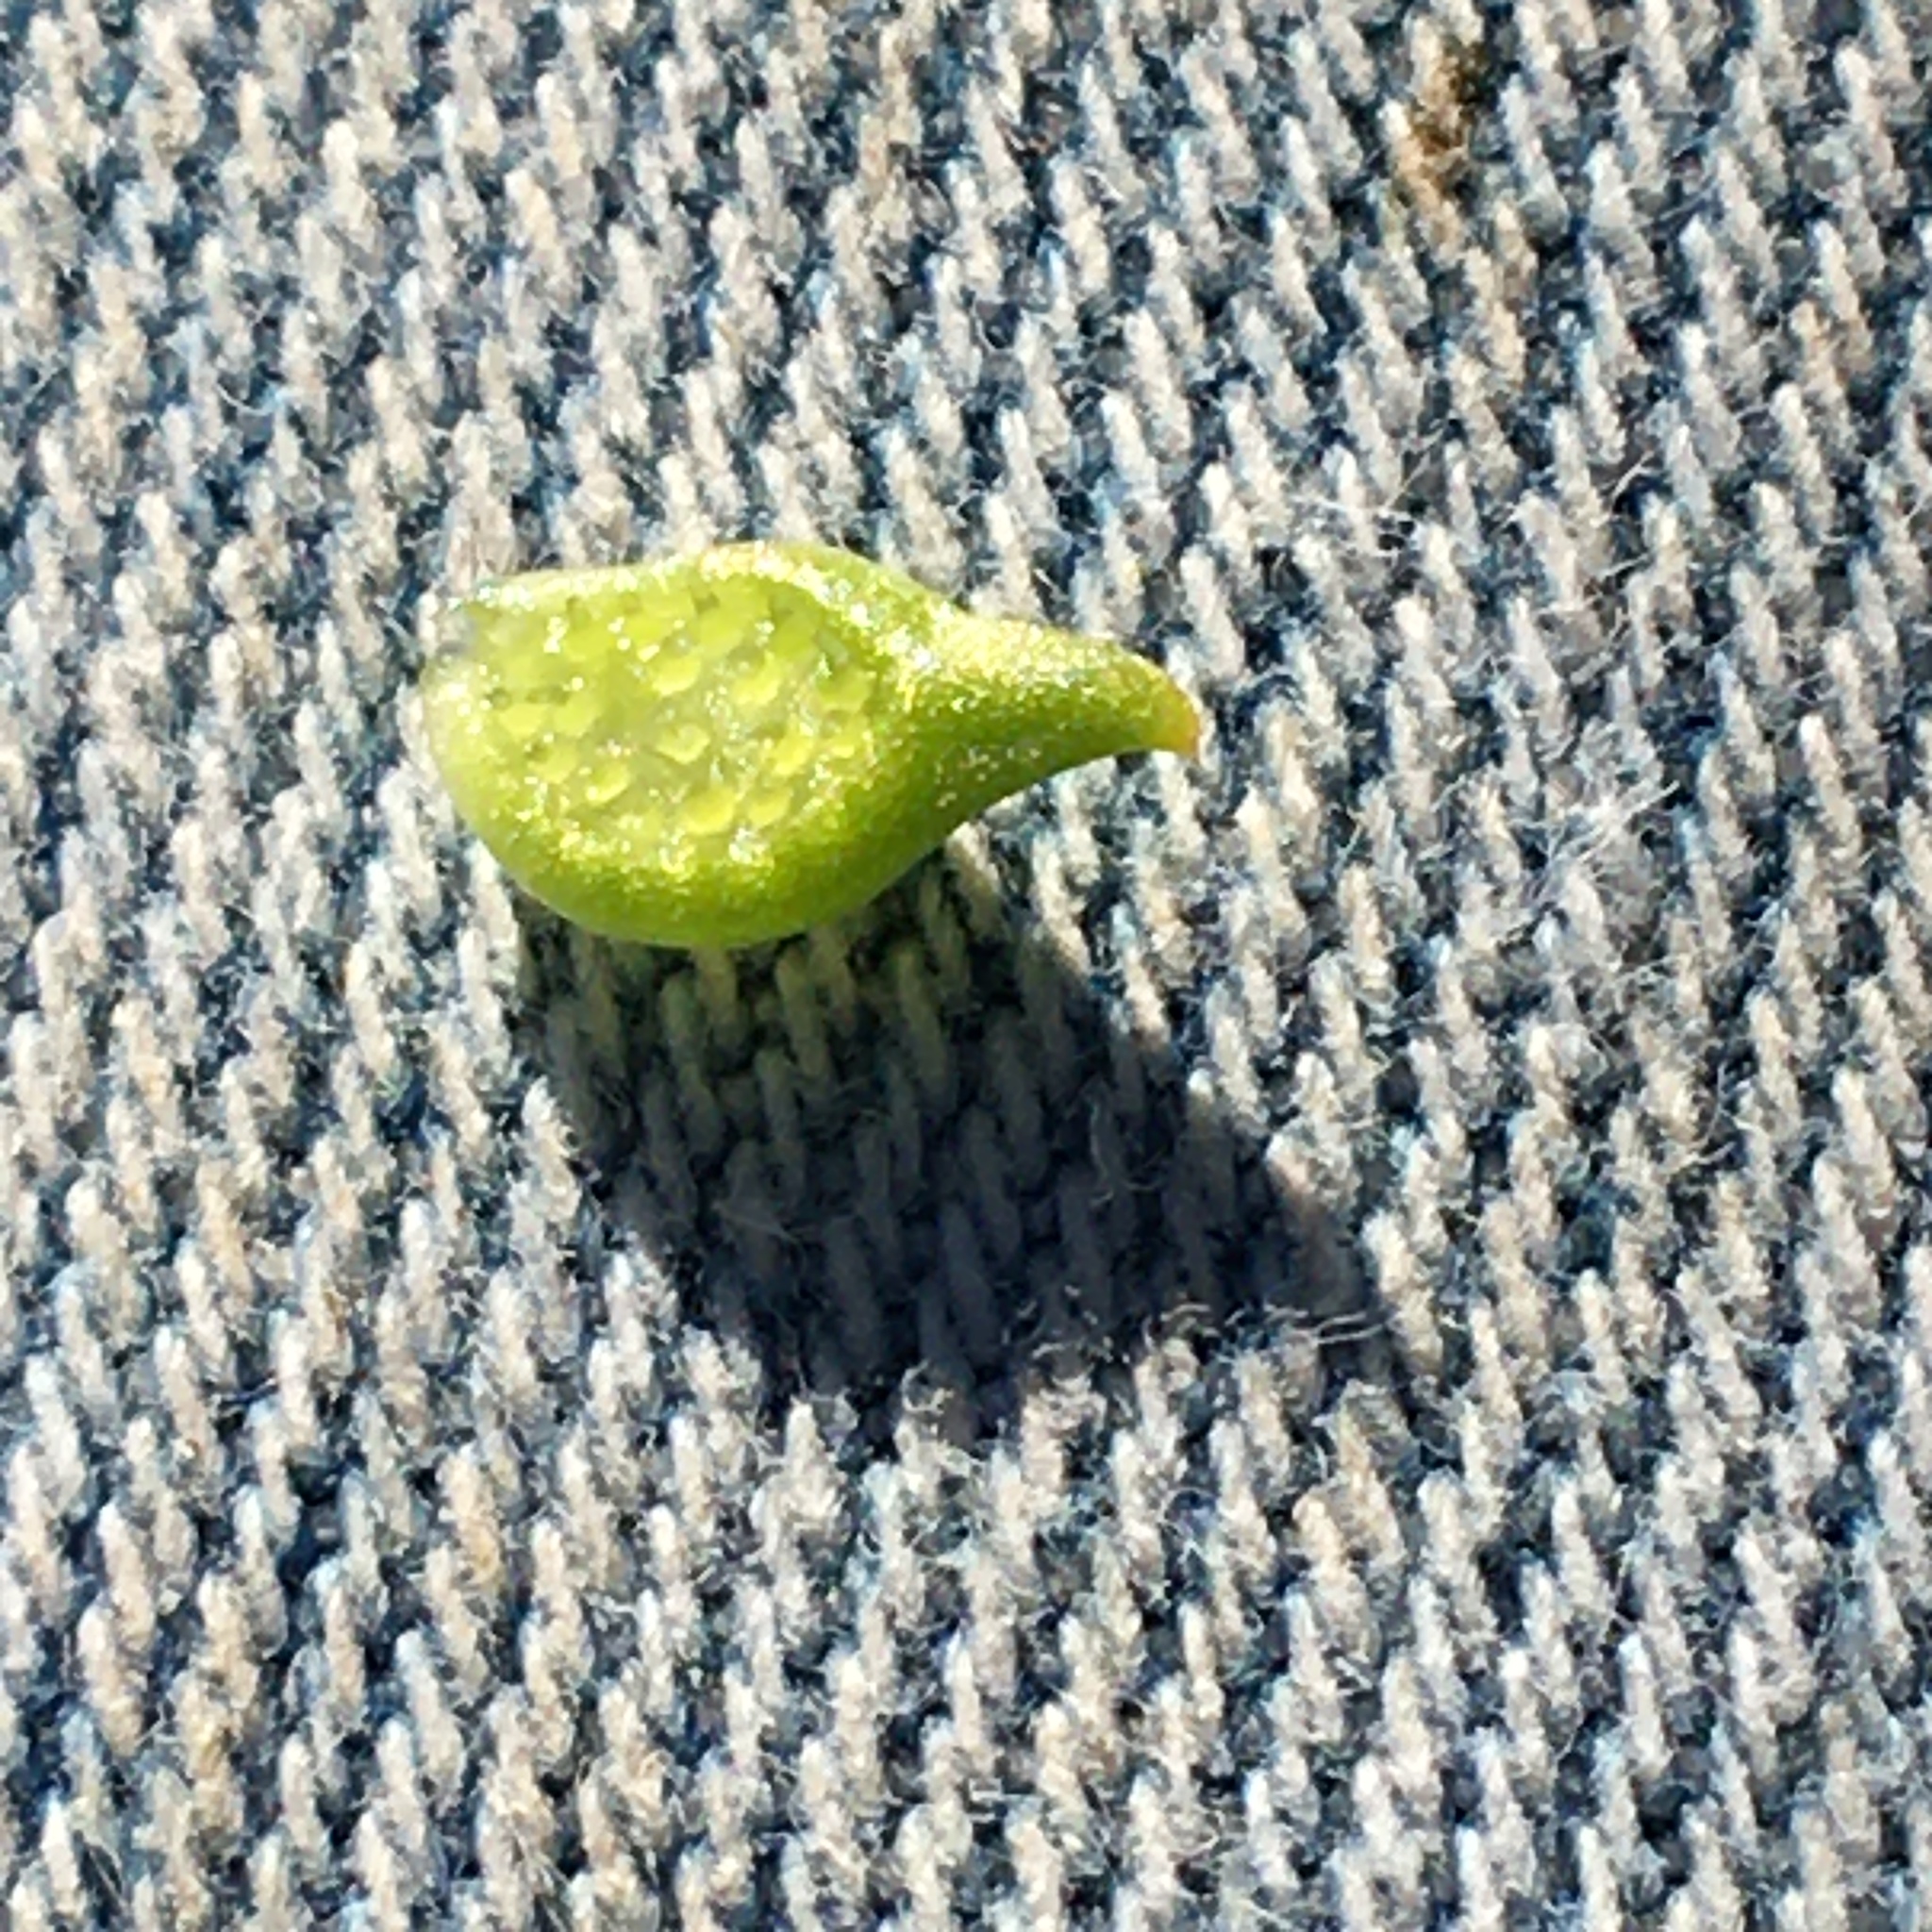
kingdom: Plantae
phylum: Tracheophyta
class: Magnoliopsida
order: Ranunculales
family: Ranunculaceae
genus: Ranunculus
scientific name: Ranunculus muricatus
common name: Rough-fruited buttercup
